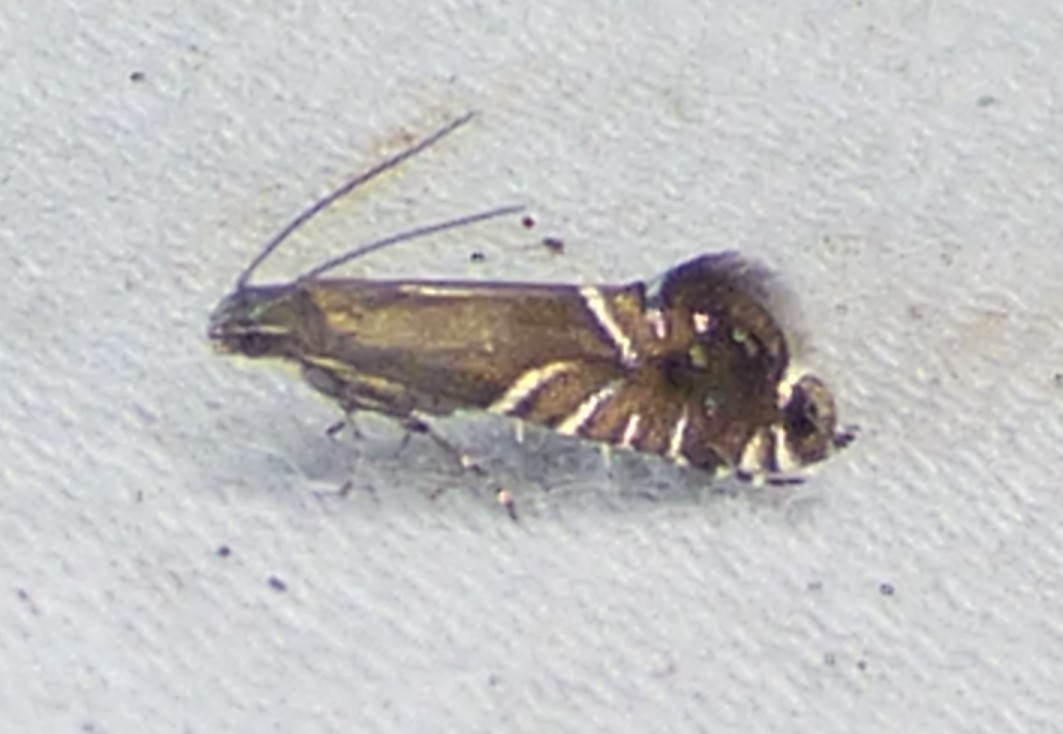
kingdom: Animalia
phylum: Arthropoda
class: Insecta
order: Lepidoptera
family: Glyphipterigidae
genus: Glyphipterix
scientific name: Glyphipterix Diploschizia impigritella
